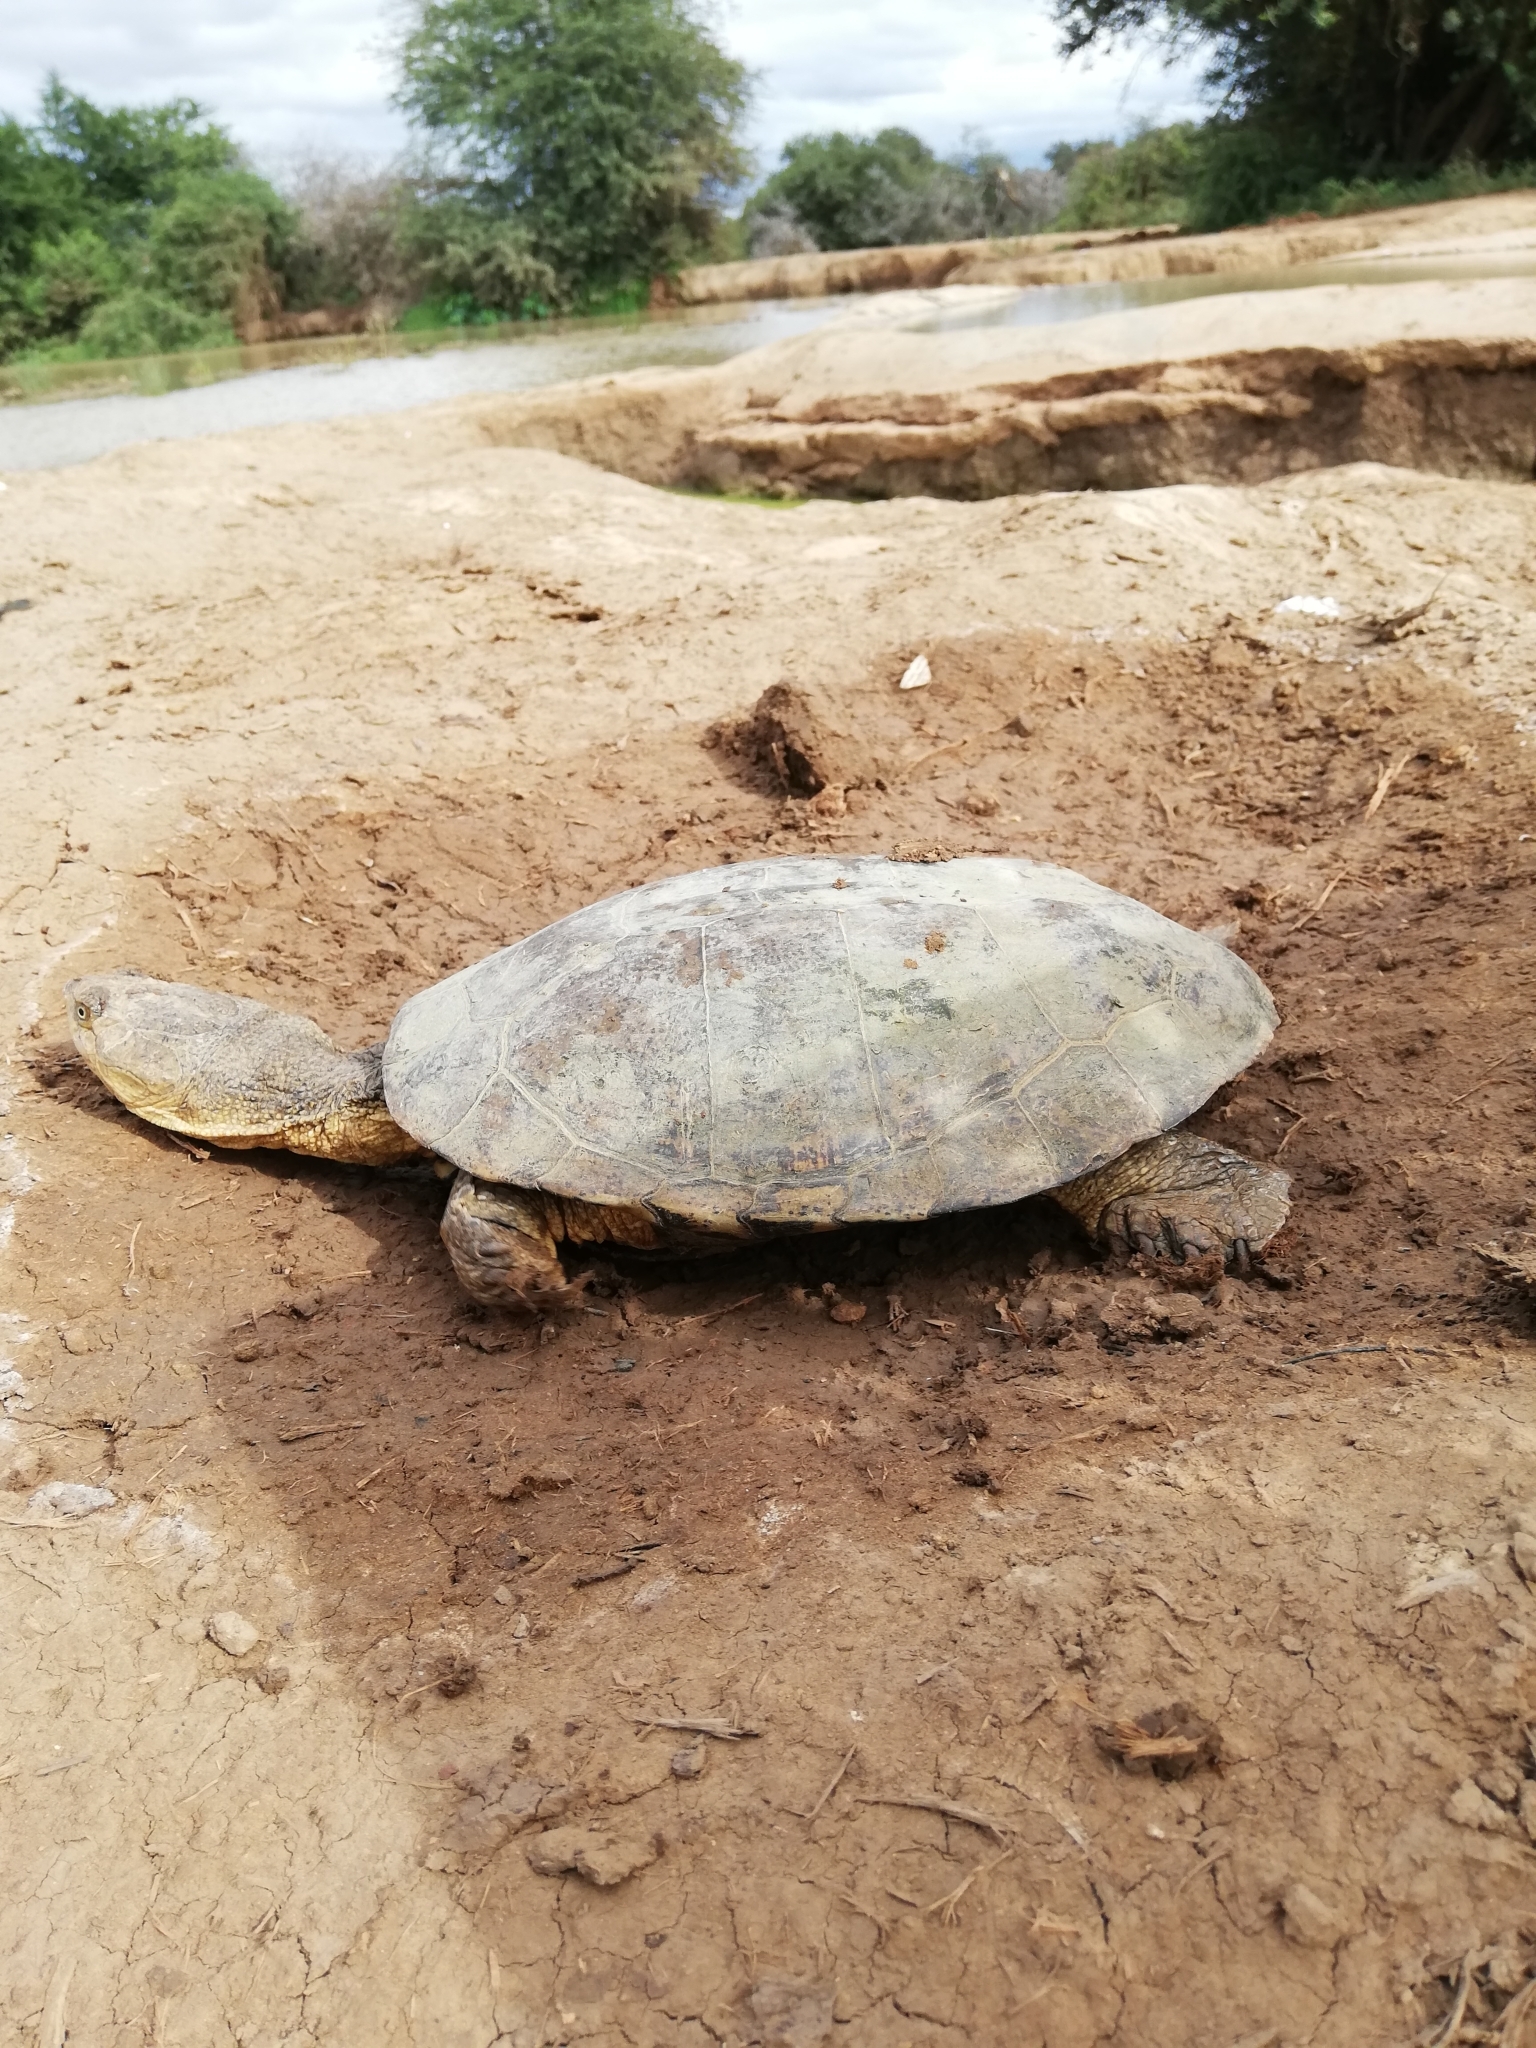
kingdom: Animalia
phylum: Chordata
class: Testudines
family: Pelomedusidae
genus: Pelomedusa
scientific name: Pelomedusa galeata
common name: South african helmeted terrapin
